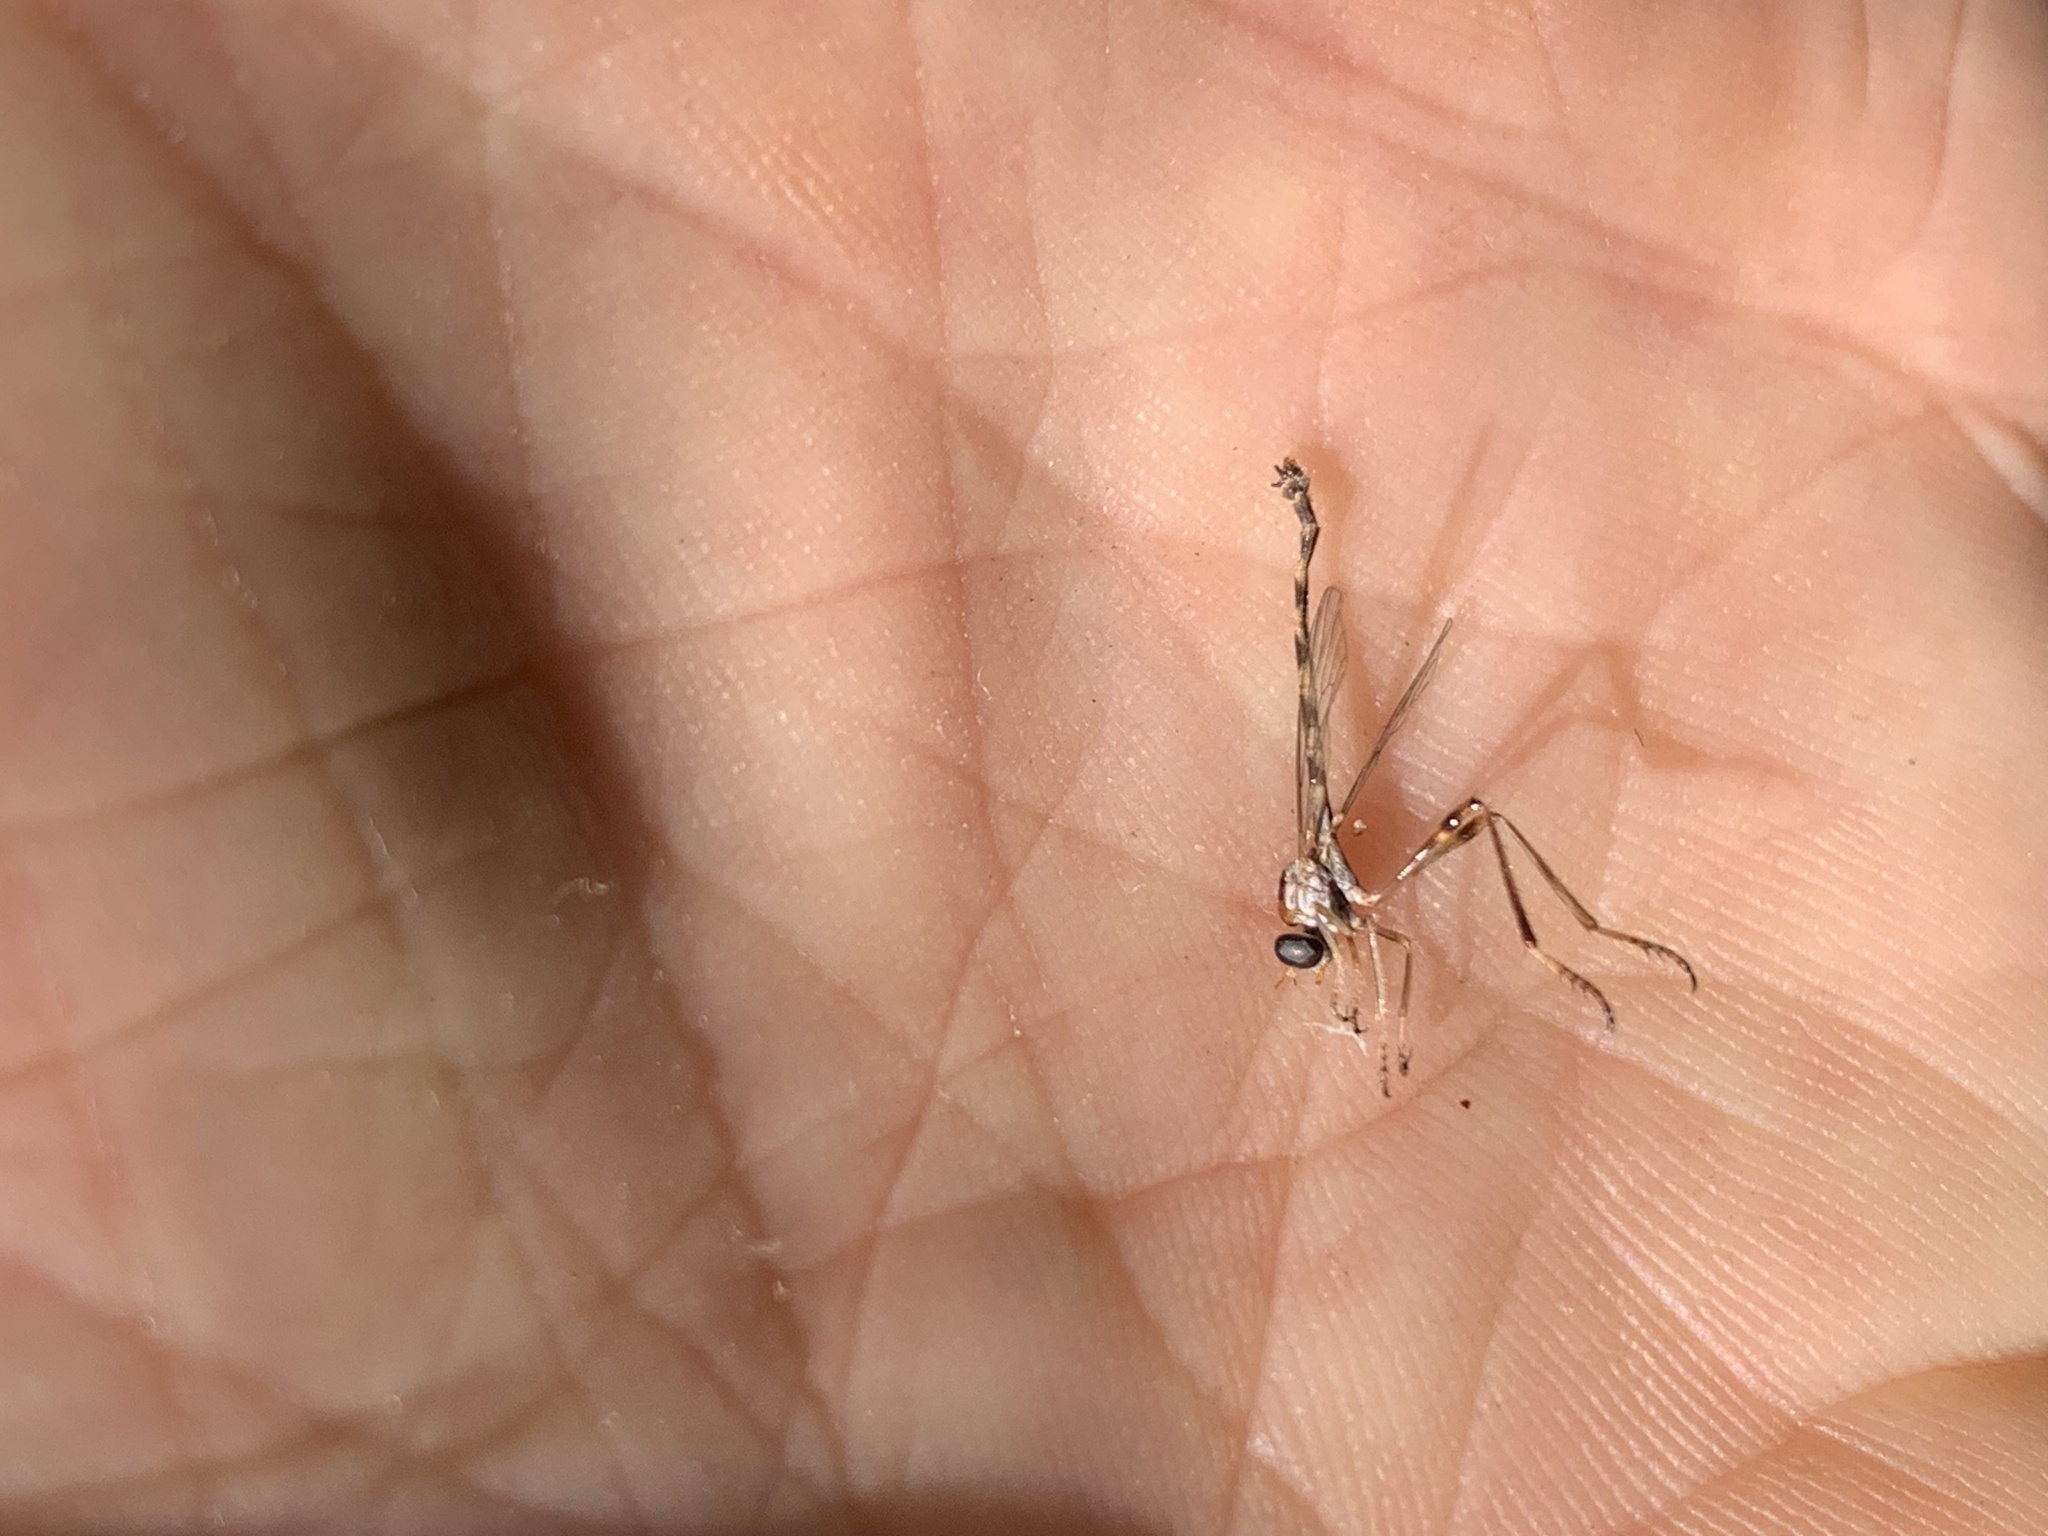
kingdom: Animalia
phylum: Arthropoda
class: Insecta
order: Diptera
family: Asilidae
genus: Tipulogaster
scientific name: Tipulogaster glabrata
